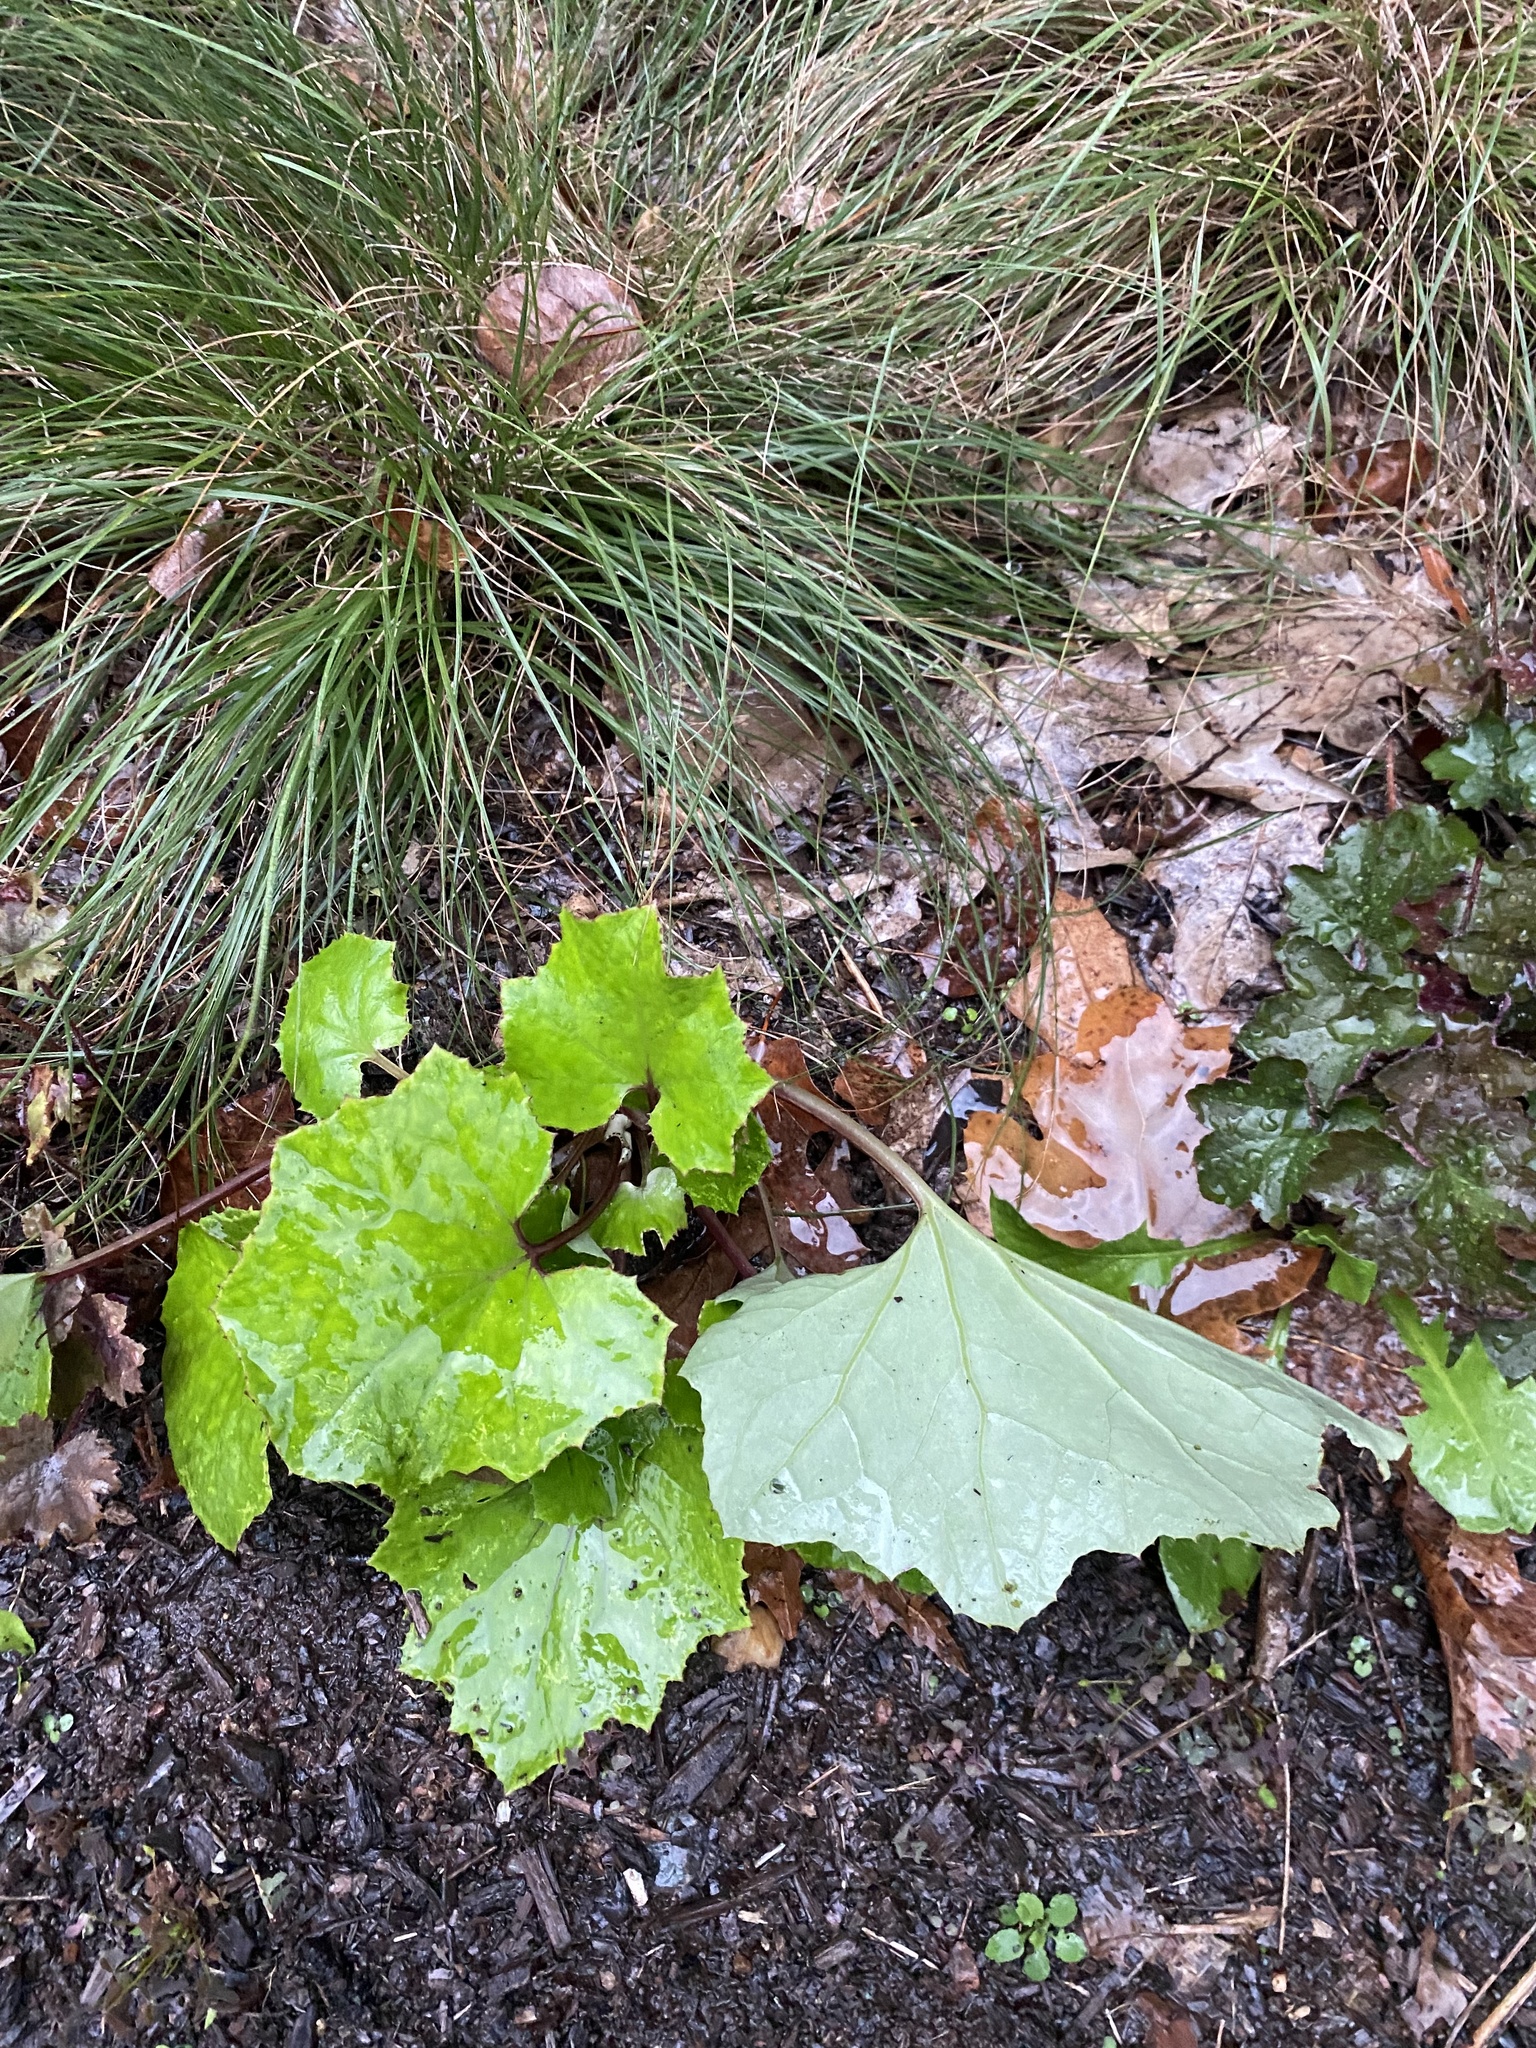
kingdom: Plantae
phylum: Tracheophyta
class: Magnoliopsida
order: Asterales
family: Asteraceae
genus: Tussilago
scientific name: Tussilago farfara
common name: Coltsfoot
